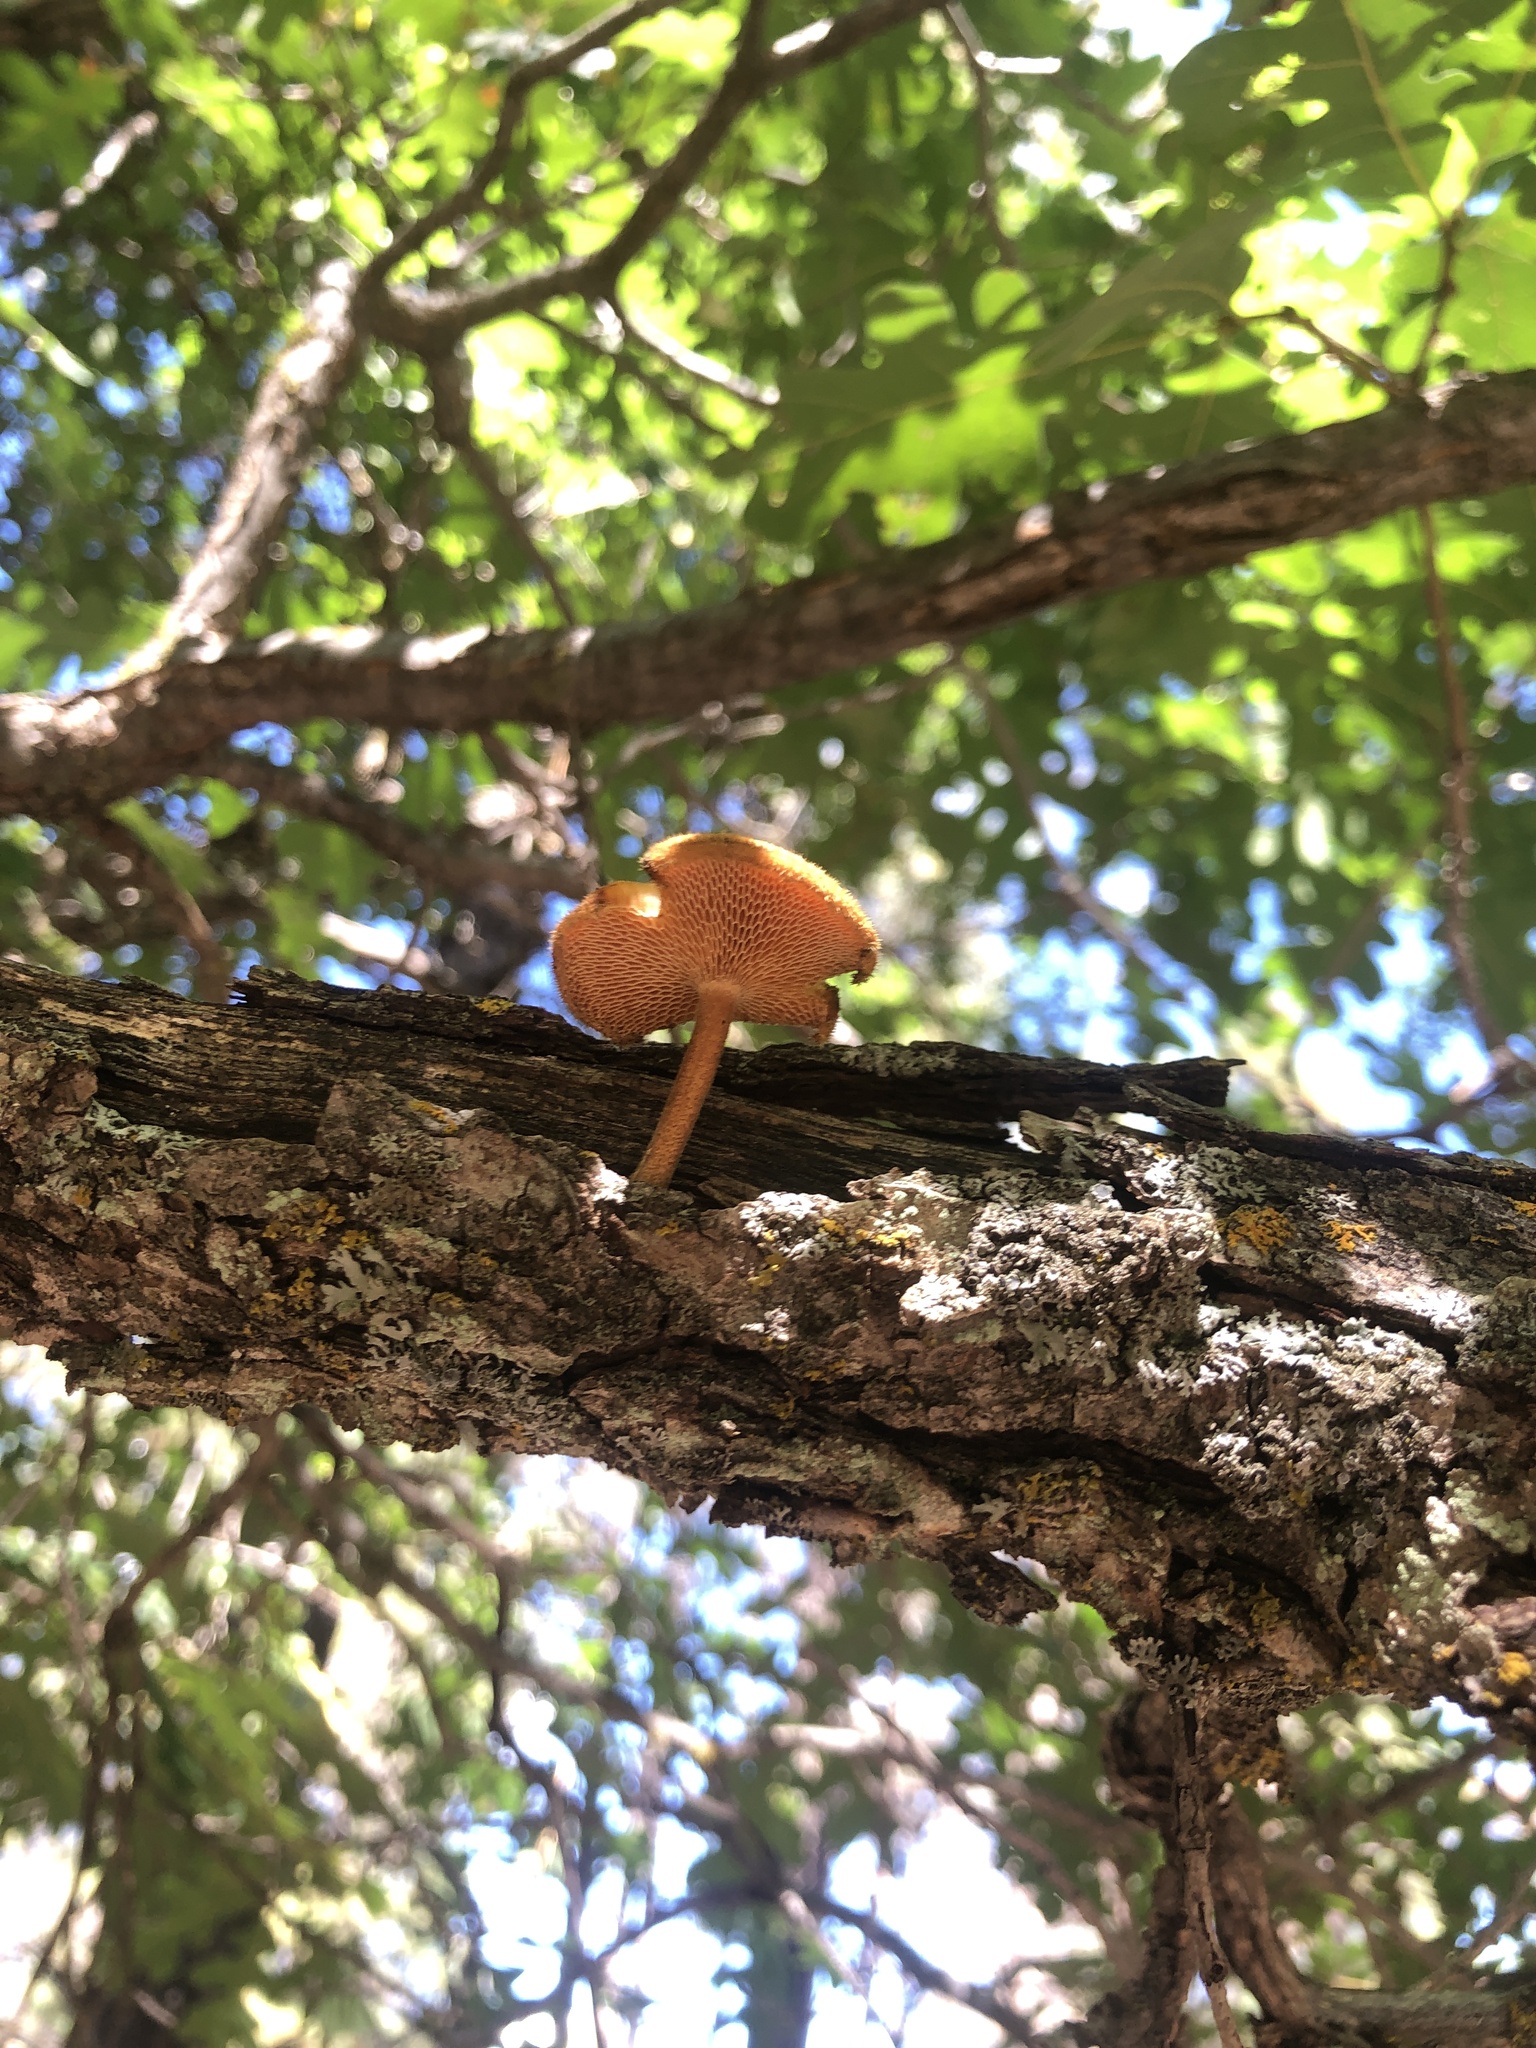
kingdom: Fungi
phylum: Basidiomycota
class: Agaricomycetes
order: Polyporales
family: Polyporaceae
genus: Lentinus
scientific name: Lentinus arcularius
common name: Spring polypore
